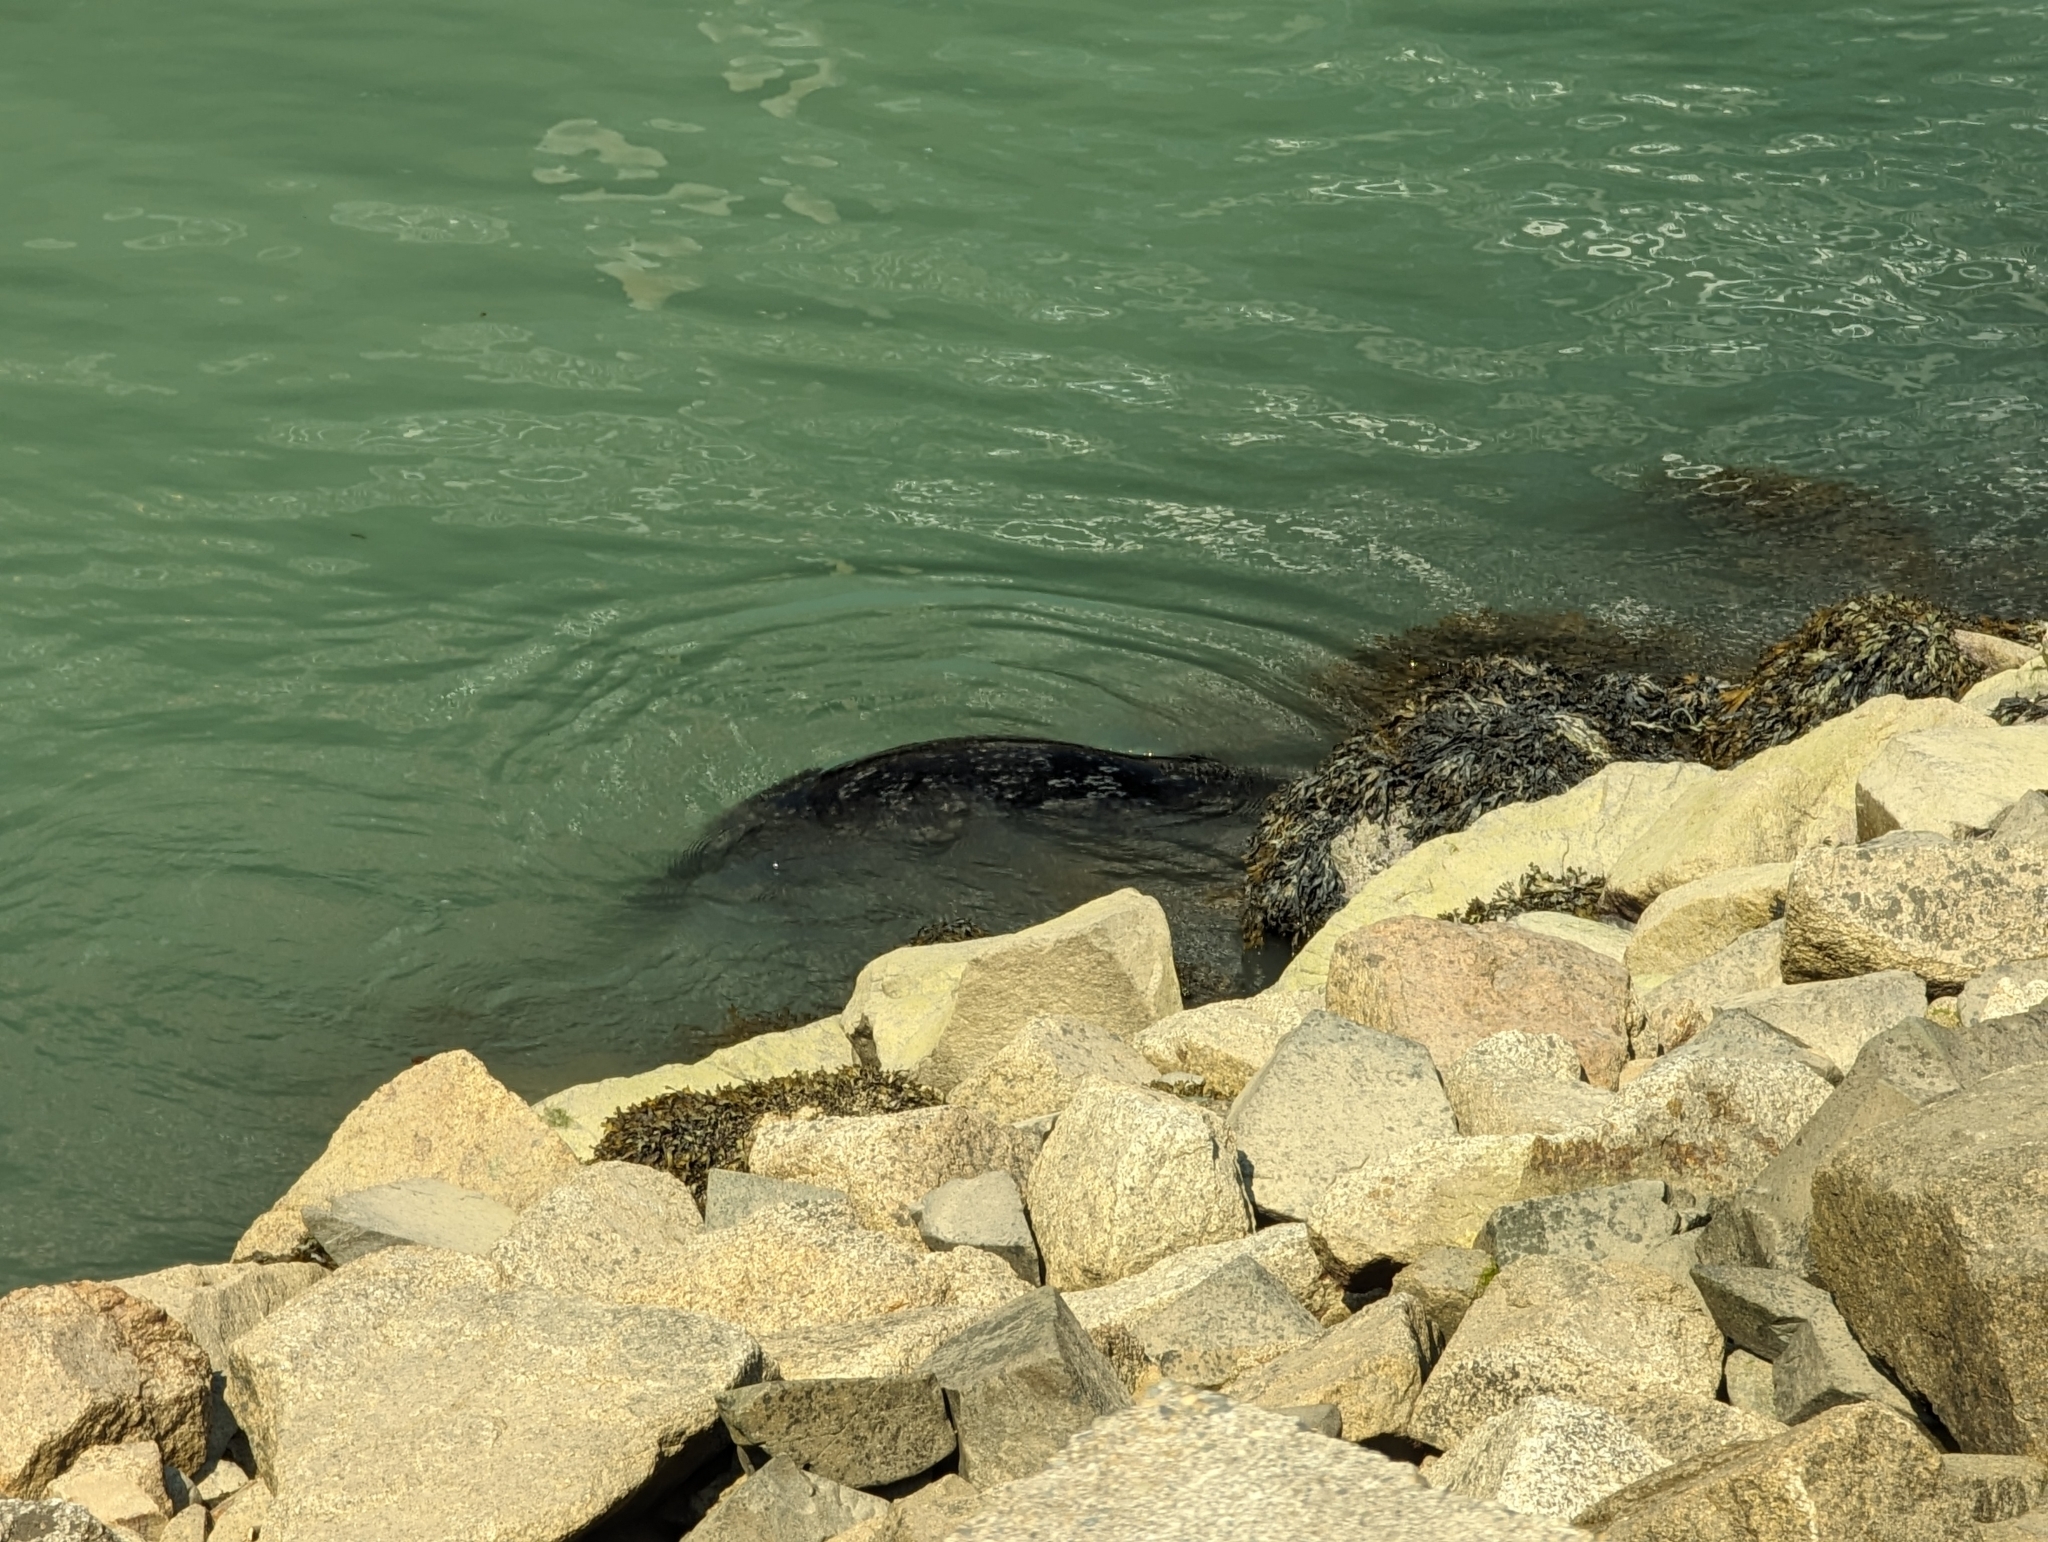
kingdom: Animalia
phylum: Chordata
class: Mammalia
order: Carnivora
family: Phocidae
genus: Phoca
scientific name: Phoca vitulina
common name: Harbor seal
